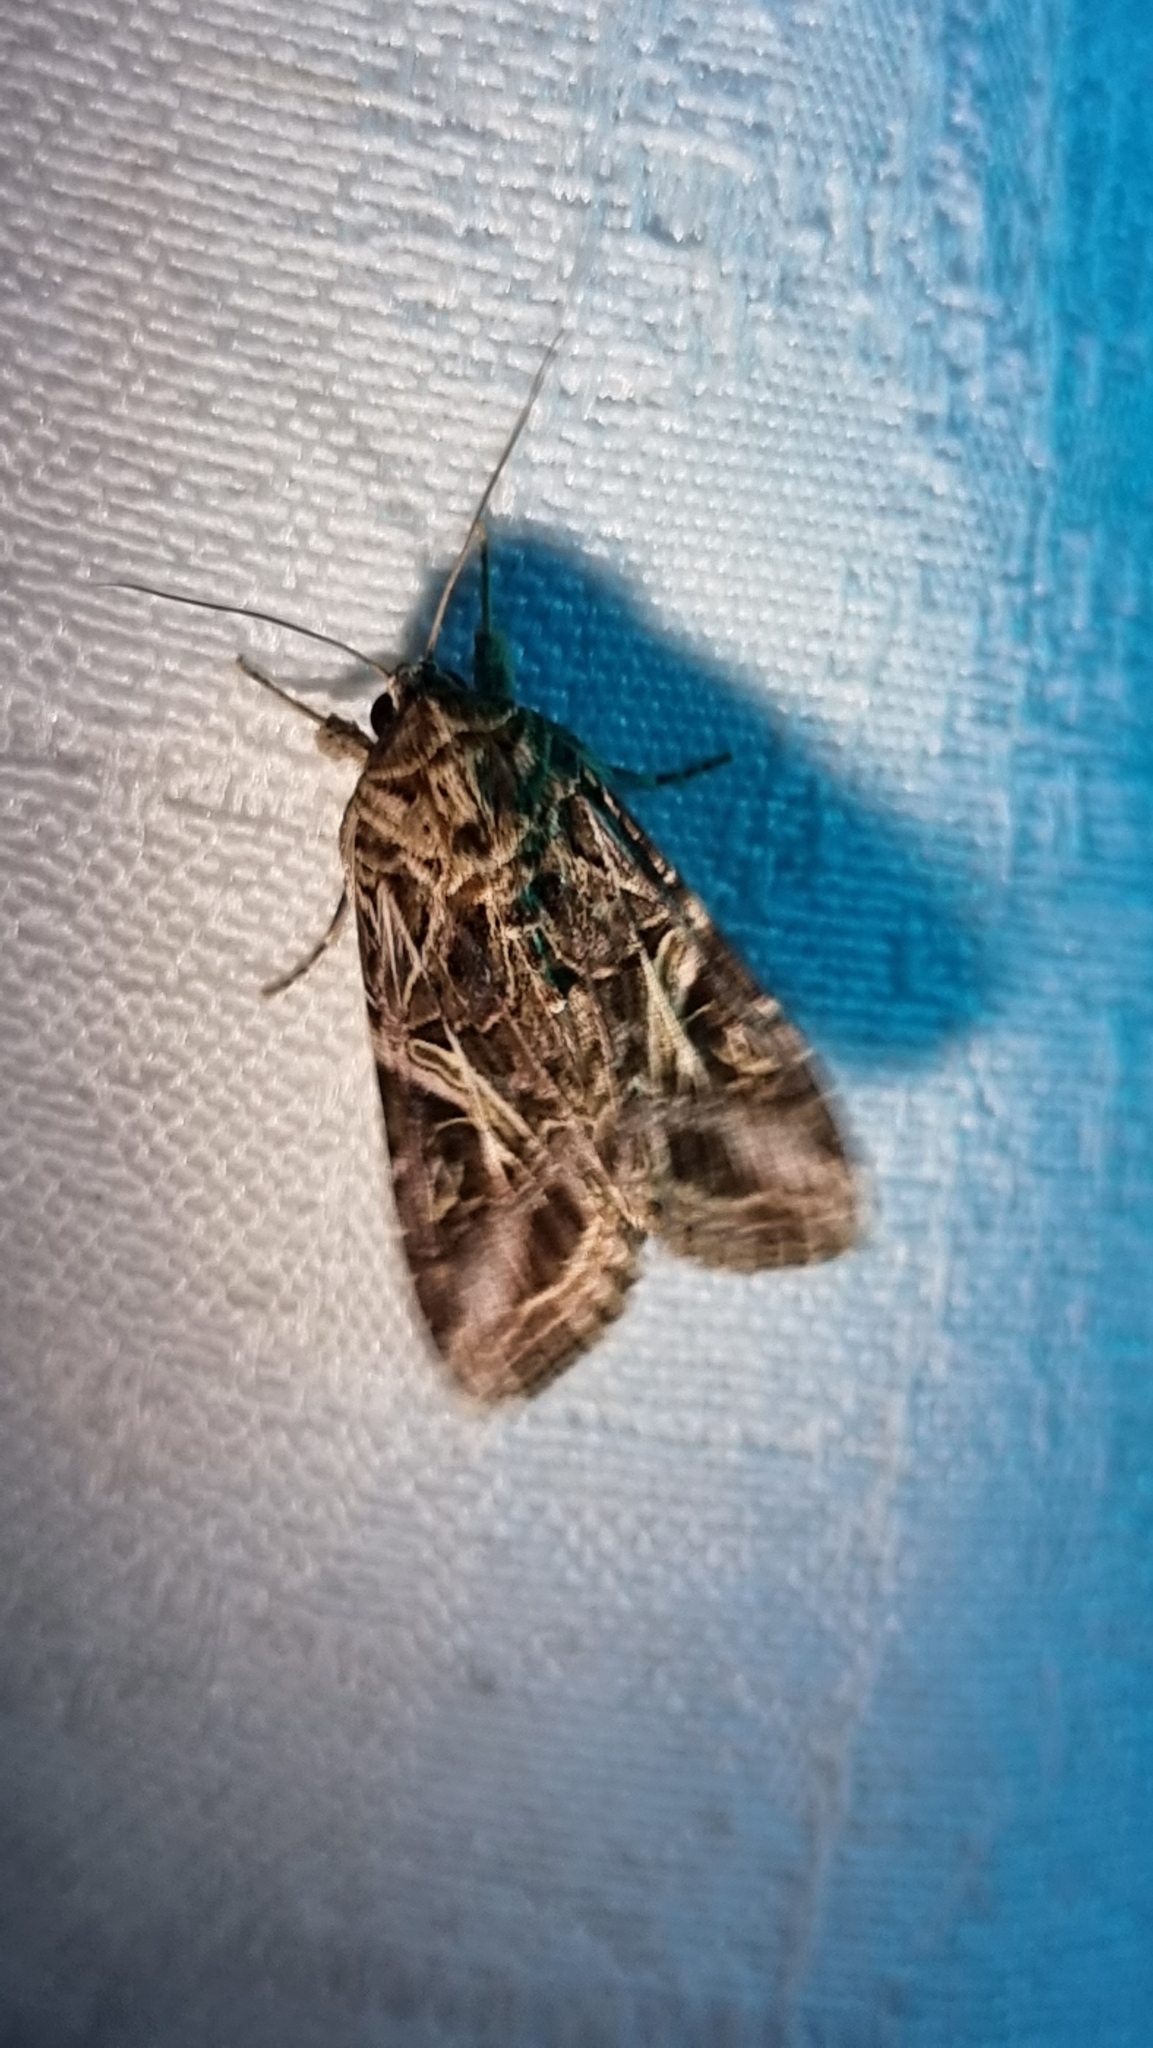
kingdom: Animalia
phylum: Arthropoda
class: Insecta
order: Lepidoptera
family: Noctuidae
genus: Spodoptera
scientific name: Spodoptera litura
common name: Asian cotton leafworm
